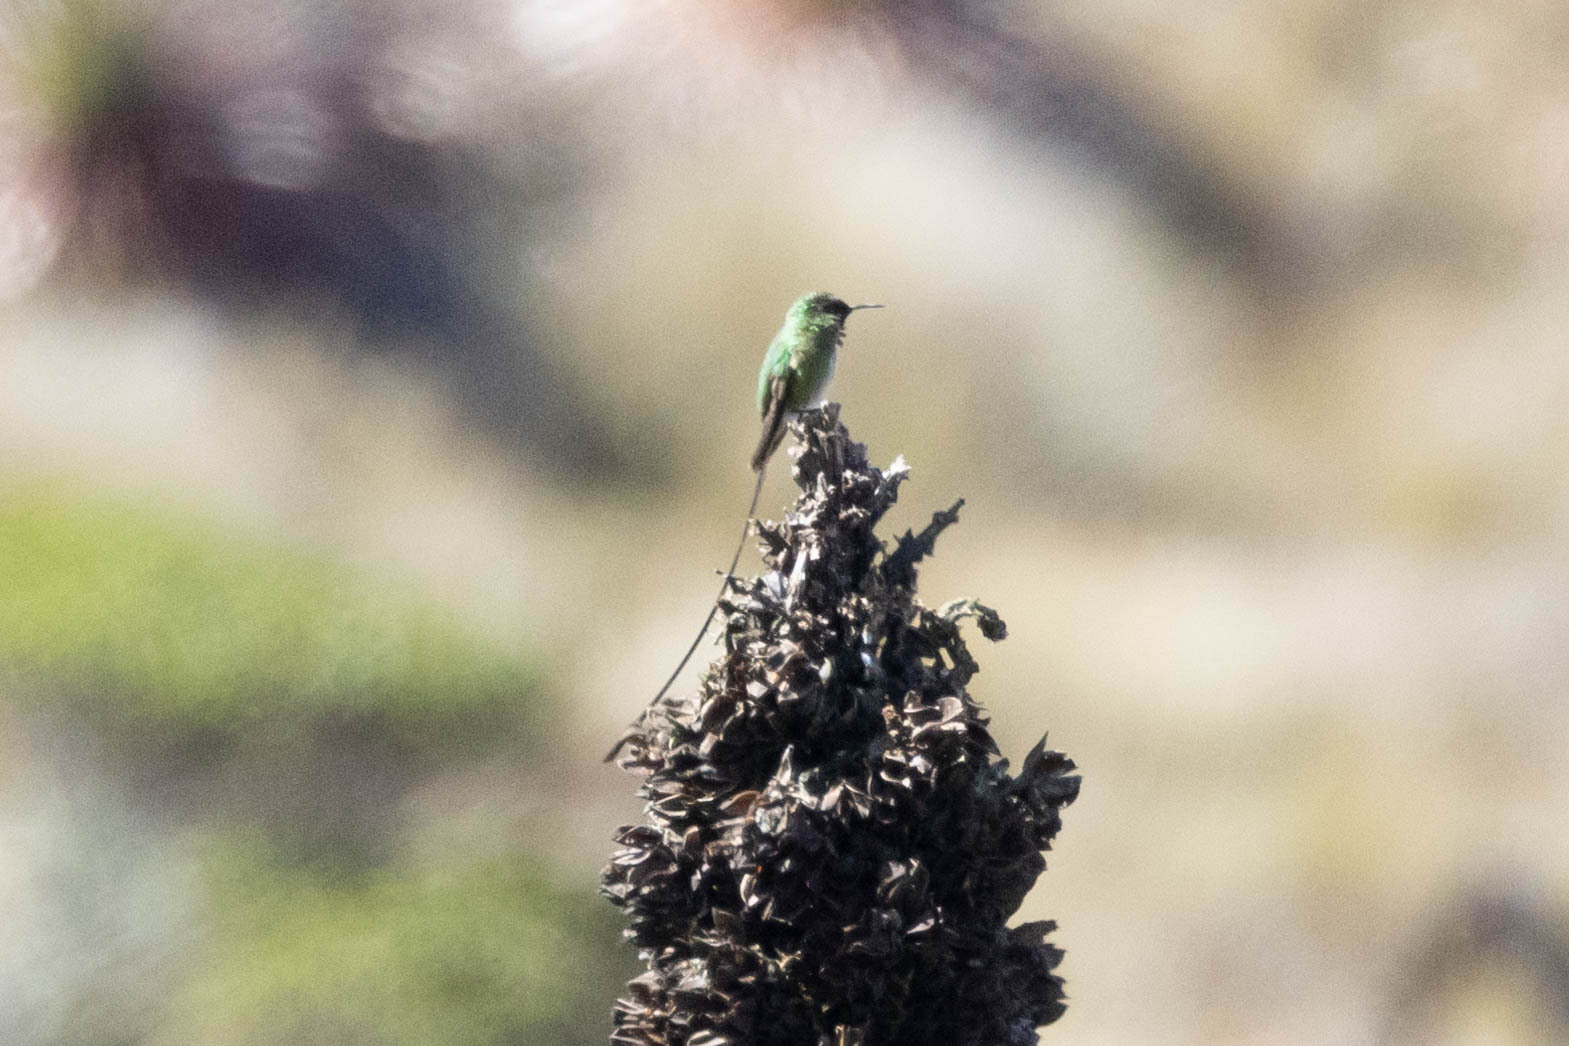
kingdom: Animalia
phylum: Chordata
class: Aves
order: Apodiformes
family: Trochilidae
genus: Lesbia
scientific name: Lesbia victoriae
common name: Black-tailed trainbearer
